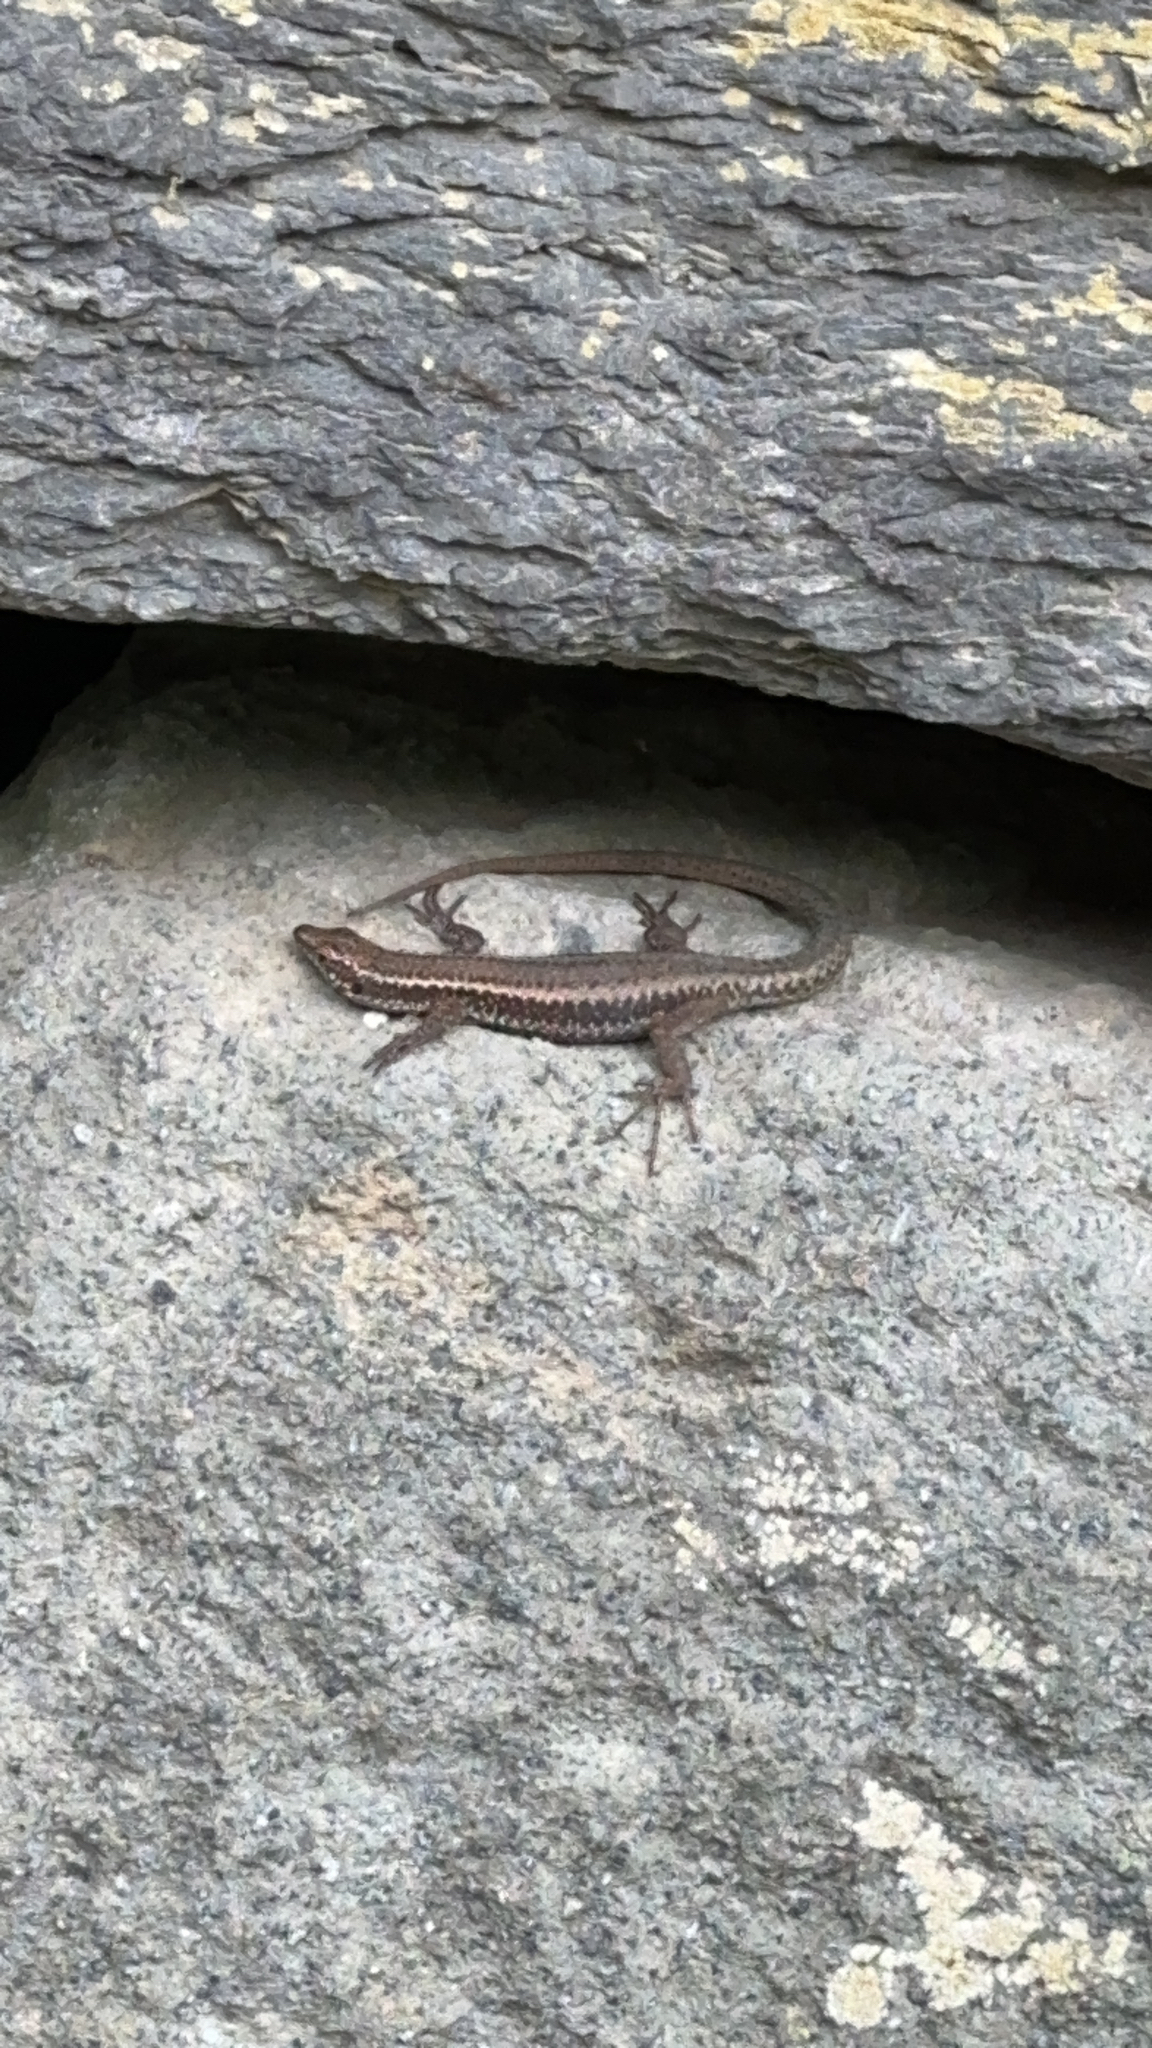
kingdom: Animalia
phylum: Chordata
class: Squamata
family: Lacertidae
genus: Teira
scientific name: Teira dugesii
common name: Madeira lizard
